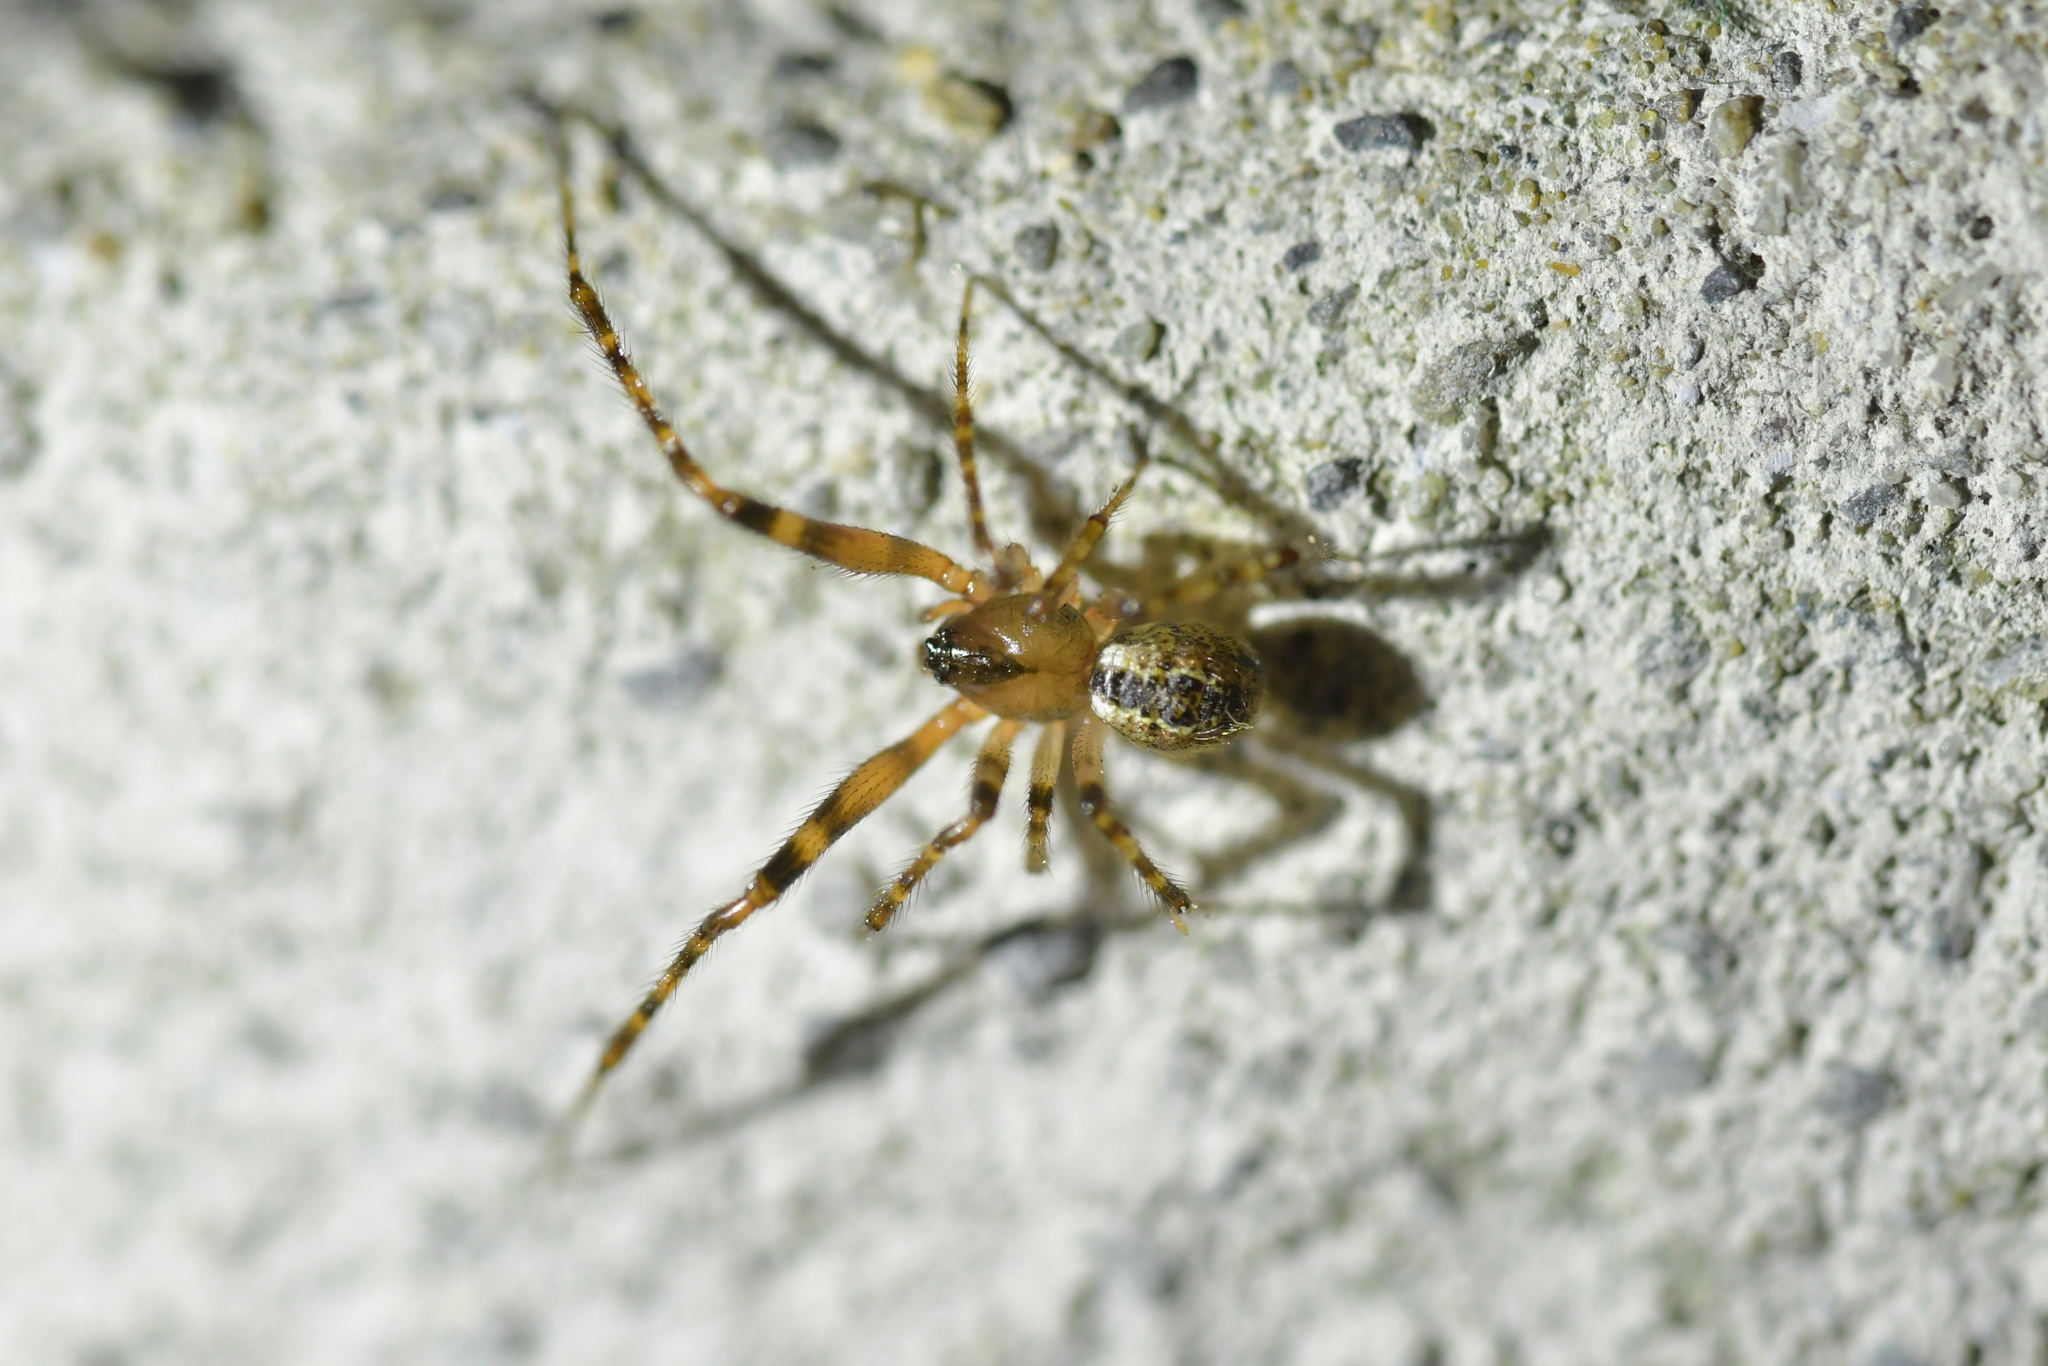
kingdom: Animalia
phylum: Arthropoda
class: Arachnida
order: Araneae
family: Theridiidae
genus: Cryptachaea
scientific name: Cryptachaea veruculata
